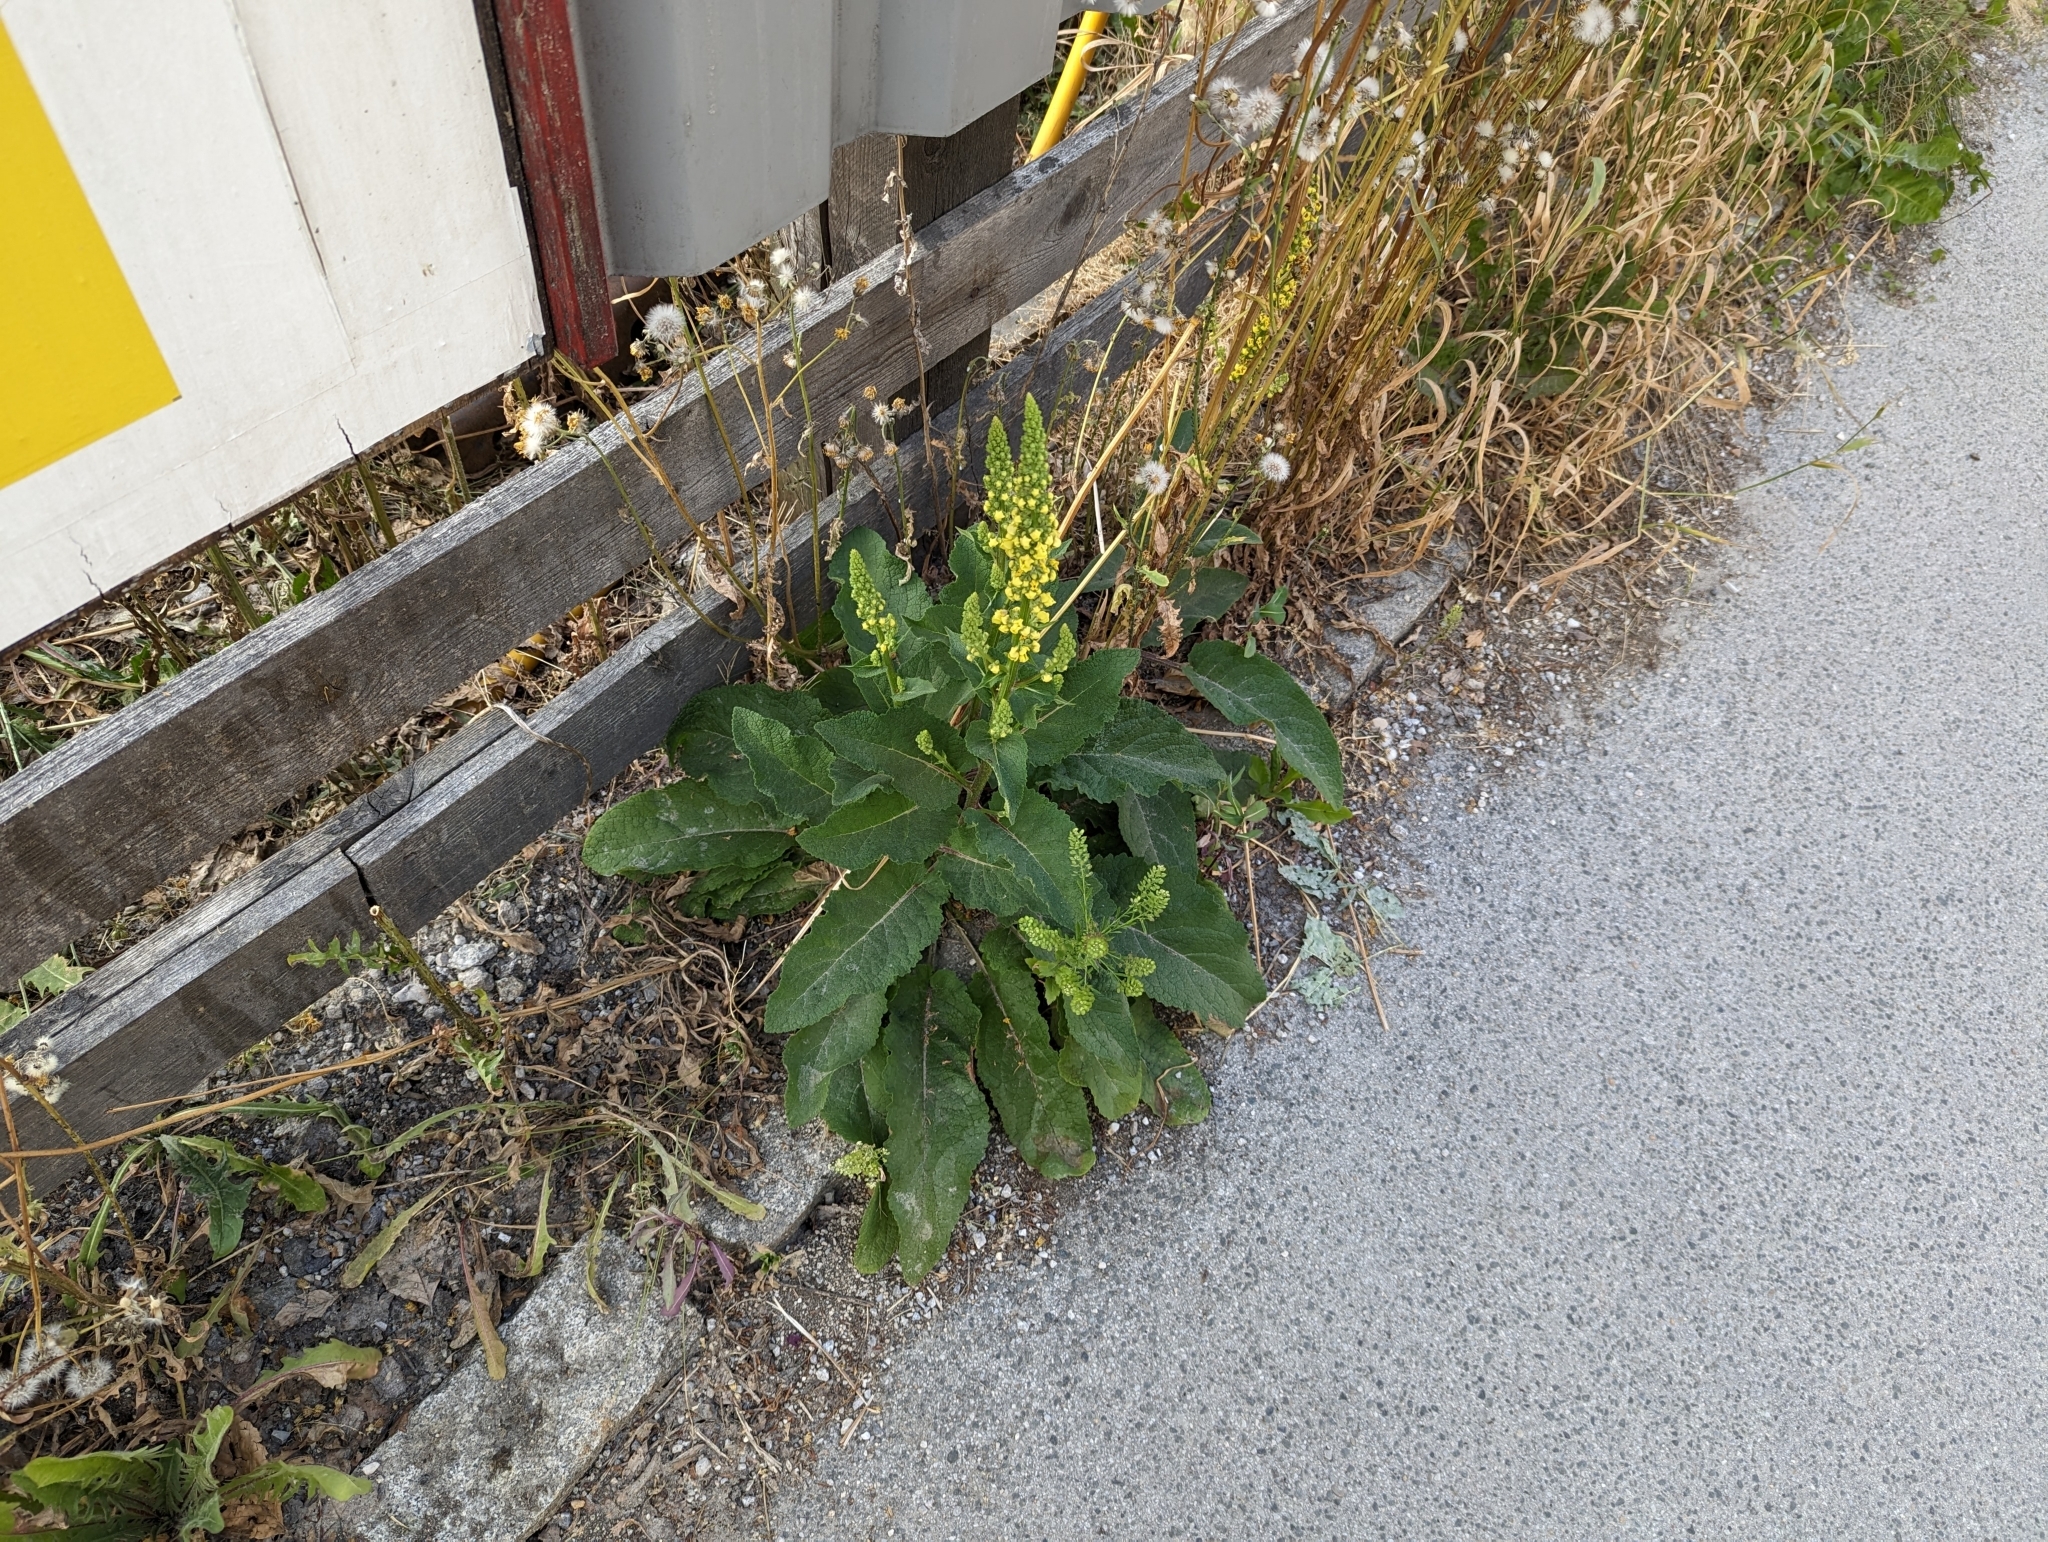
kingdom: Plantae
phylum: Tracheophyta
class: Magnoliopsida
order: Lamiales
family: Scrophulariaceae
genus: Verbascum
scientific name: Verbascum nigrum
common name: Dark mullein
